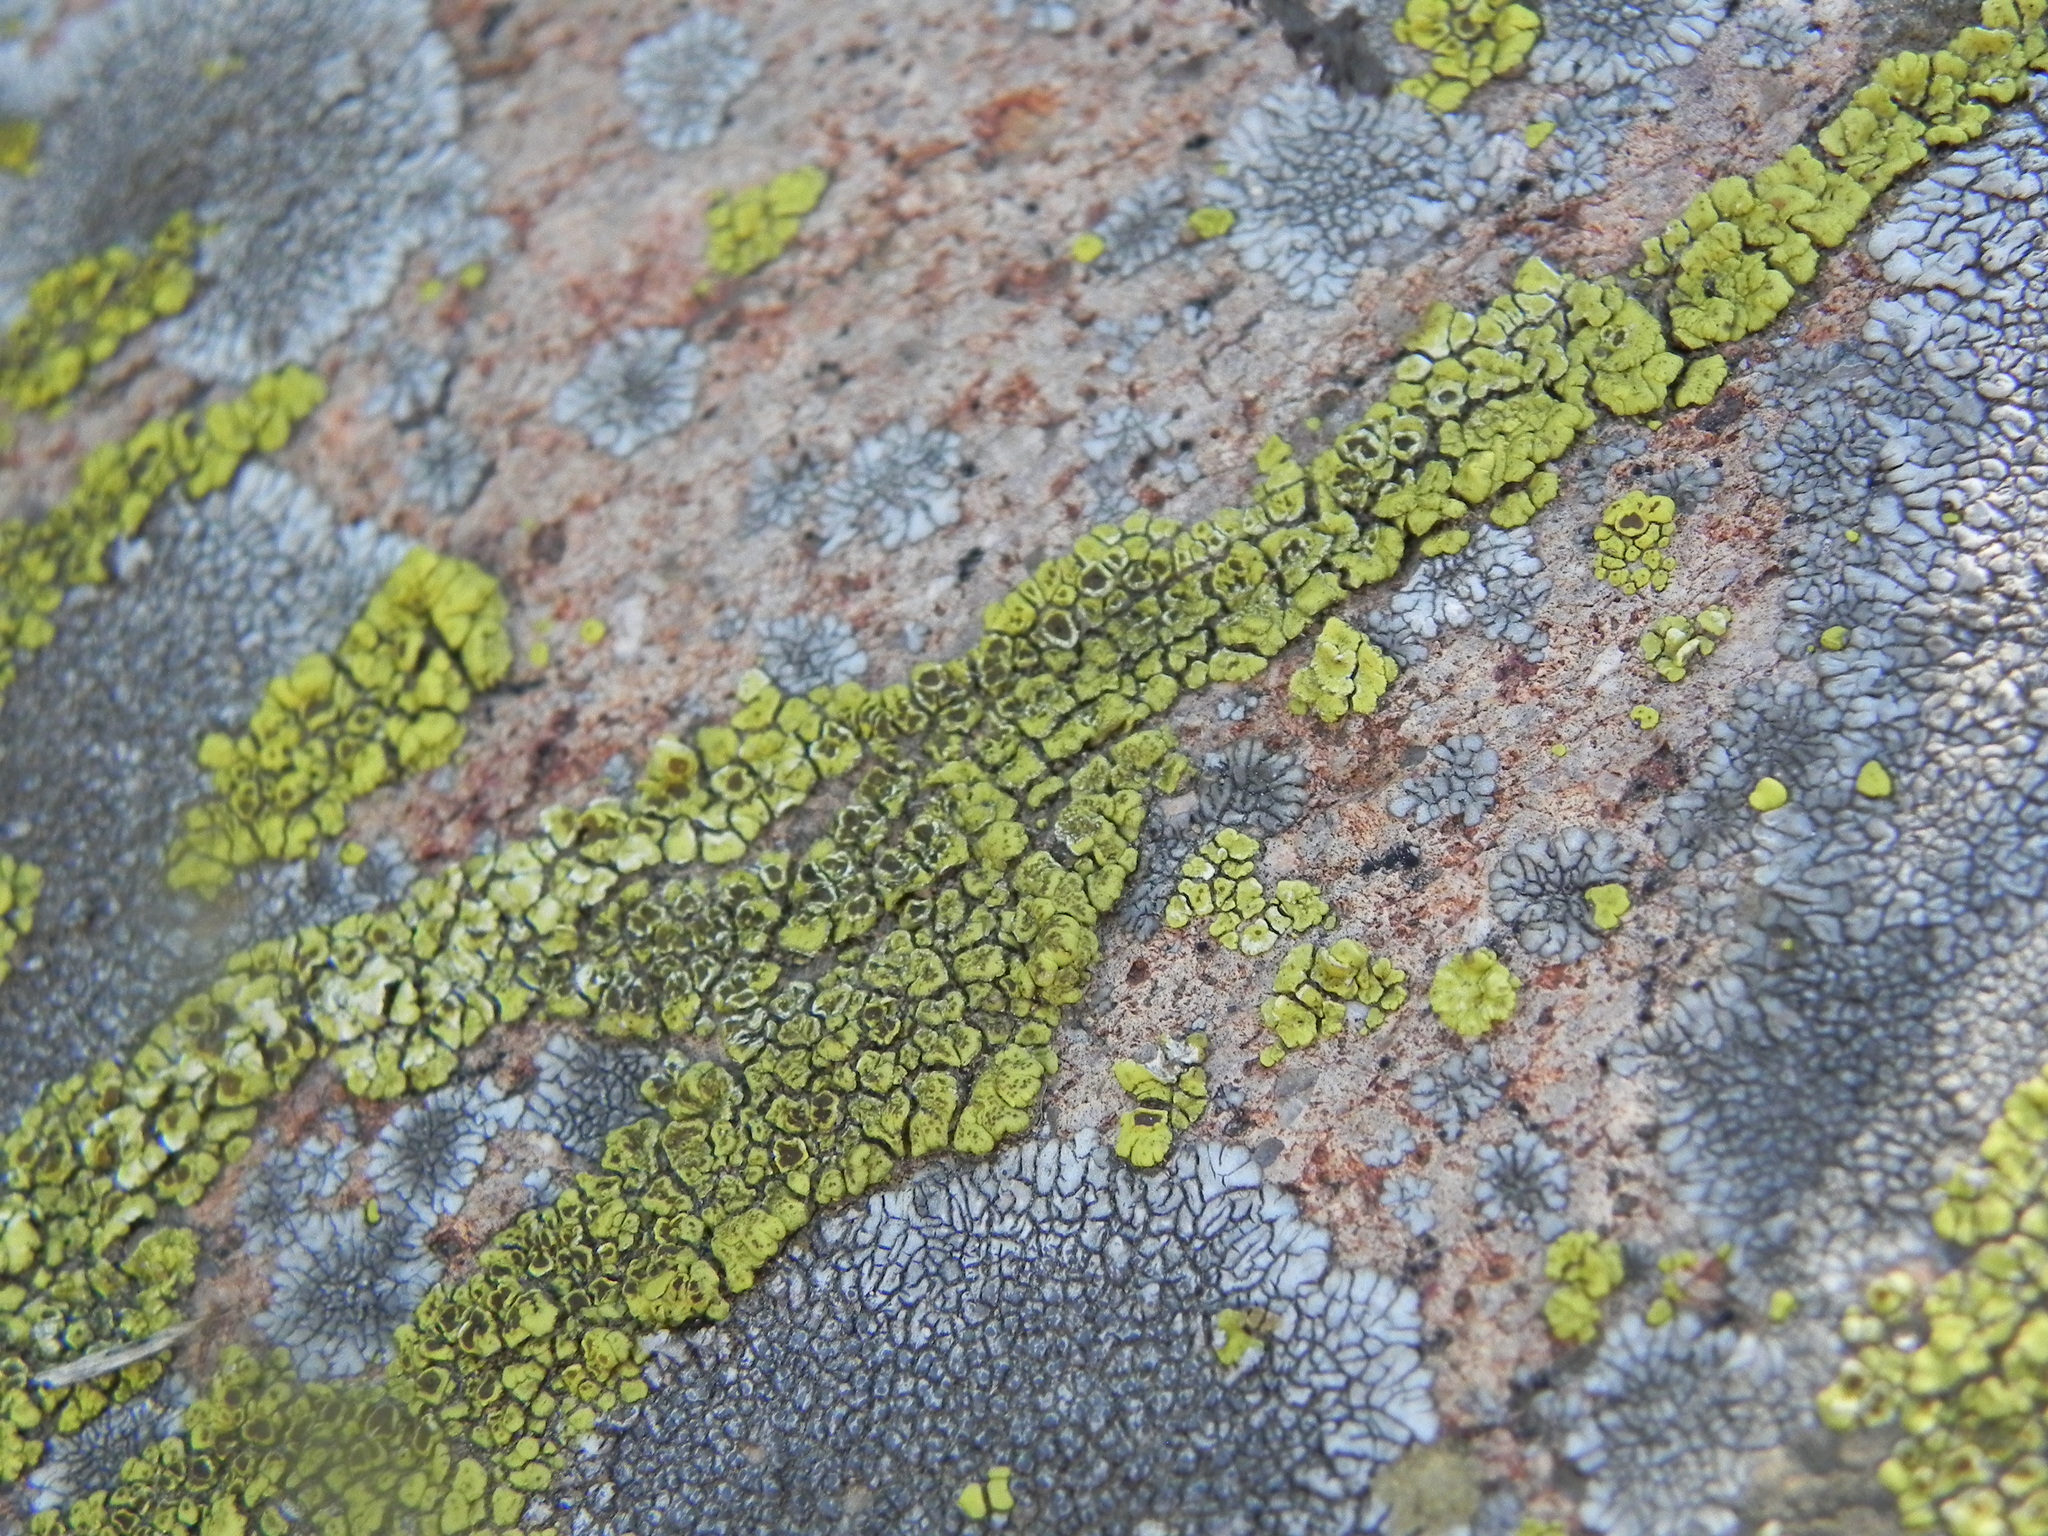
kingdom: Fungi
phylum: Ascomycota
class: Lecanoromycetes
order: Acarosporales
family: Acarosporaceae
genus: Acarospora
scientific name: Acarospora socialis
